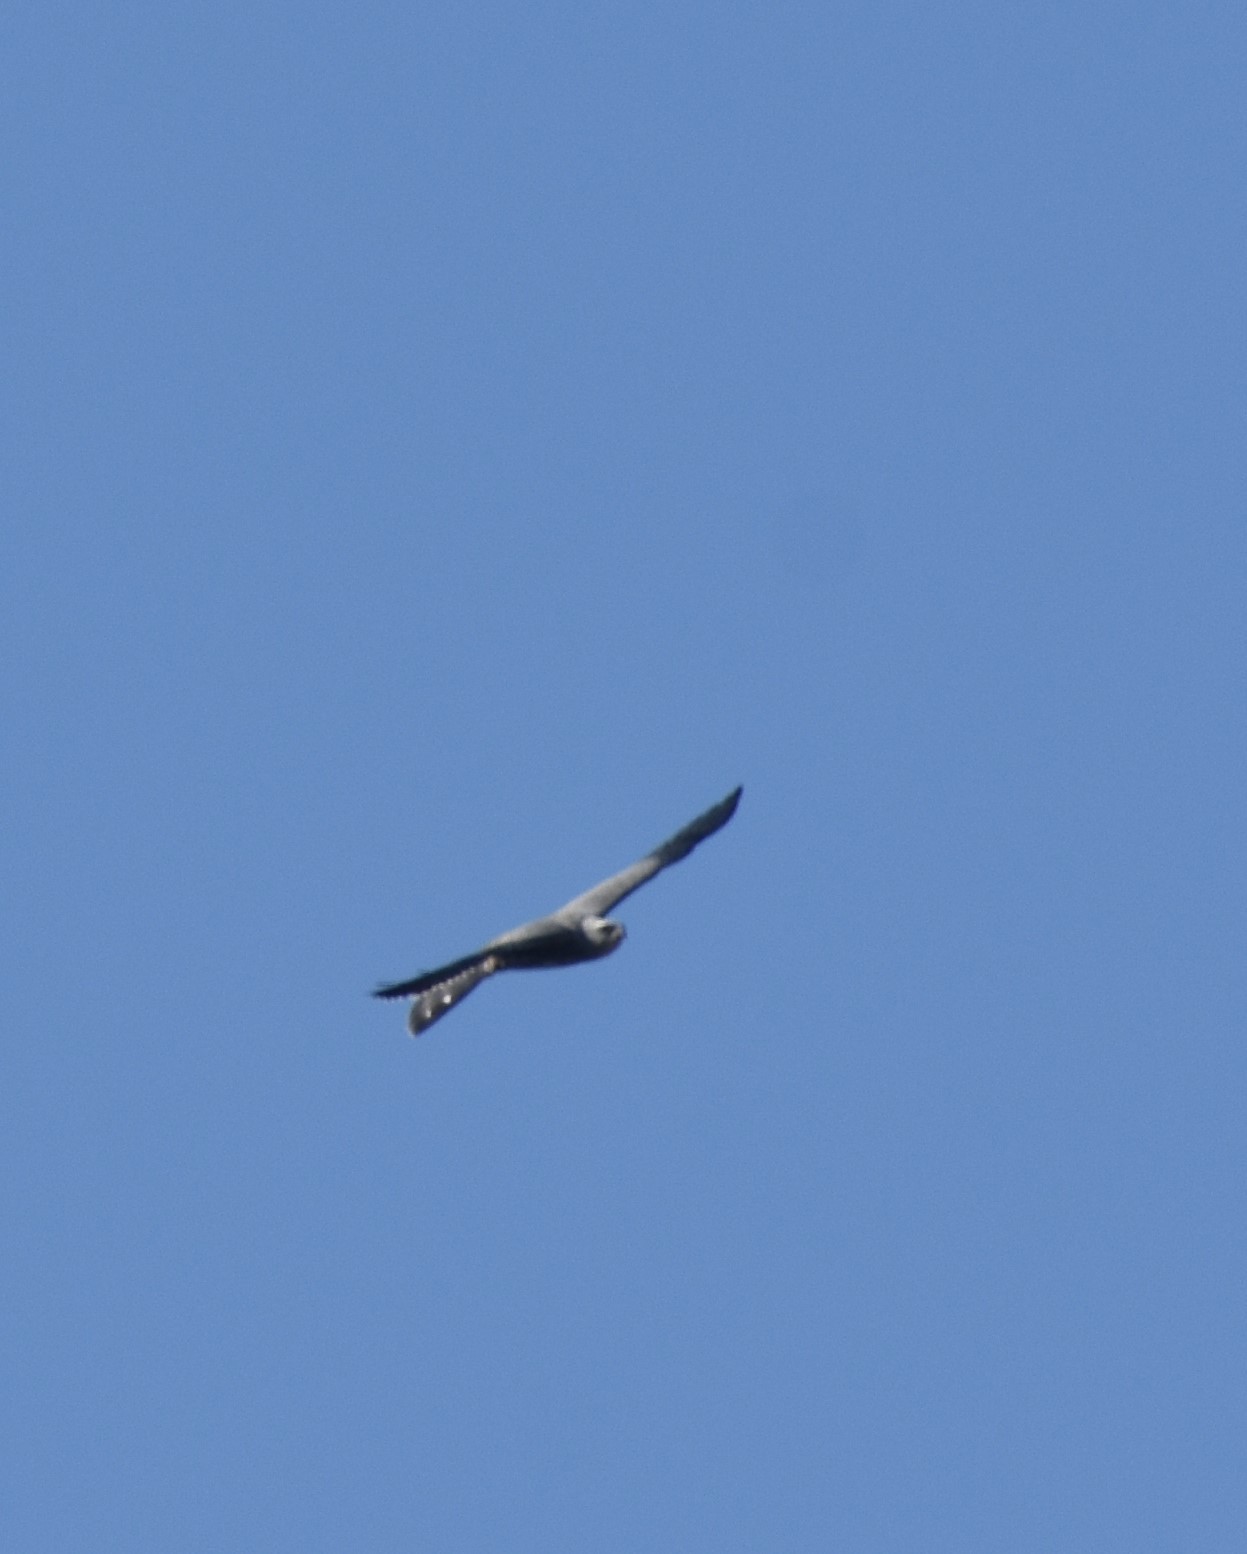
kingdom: Animalia
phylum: Chordata
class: Aves
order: Accipitriformes
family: Accipitridae
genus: Ictinia
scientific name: Ictinia mississippiensis
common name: Mississippi kite
